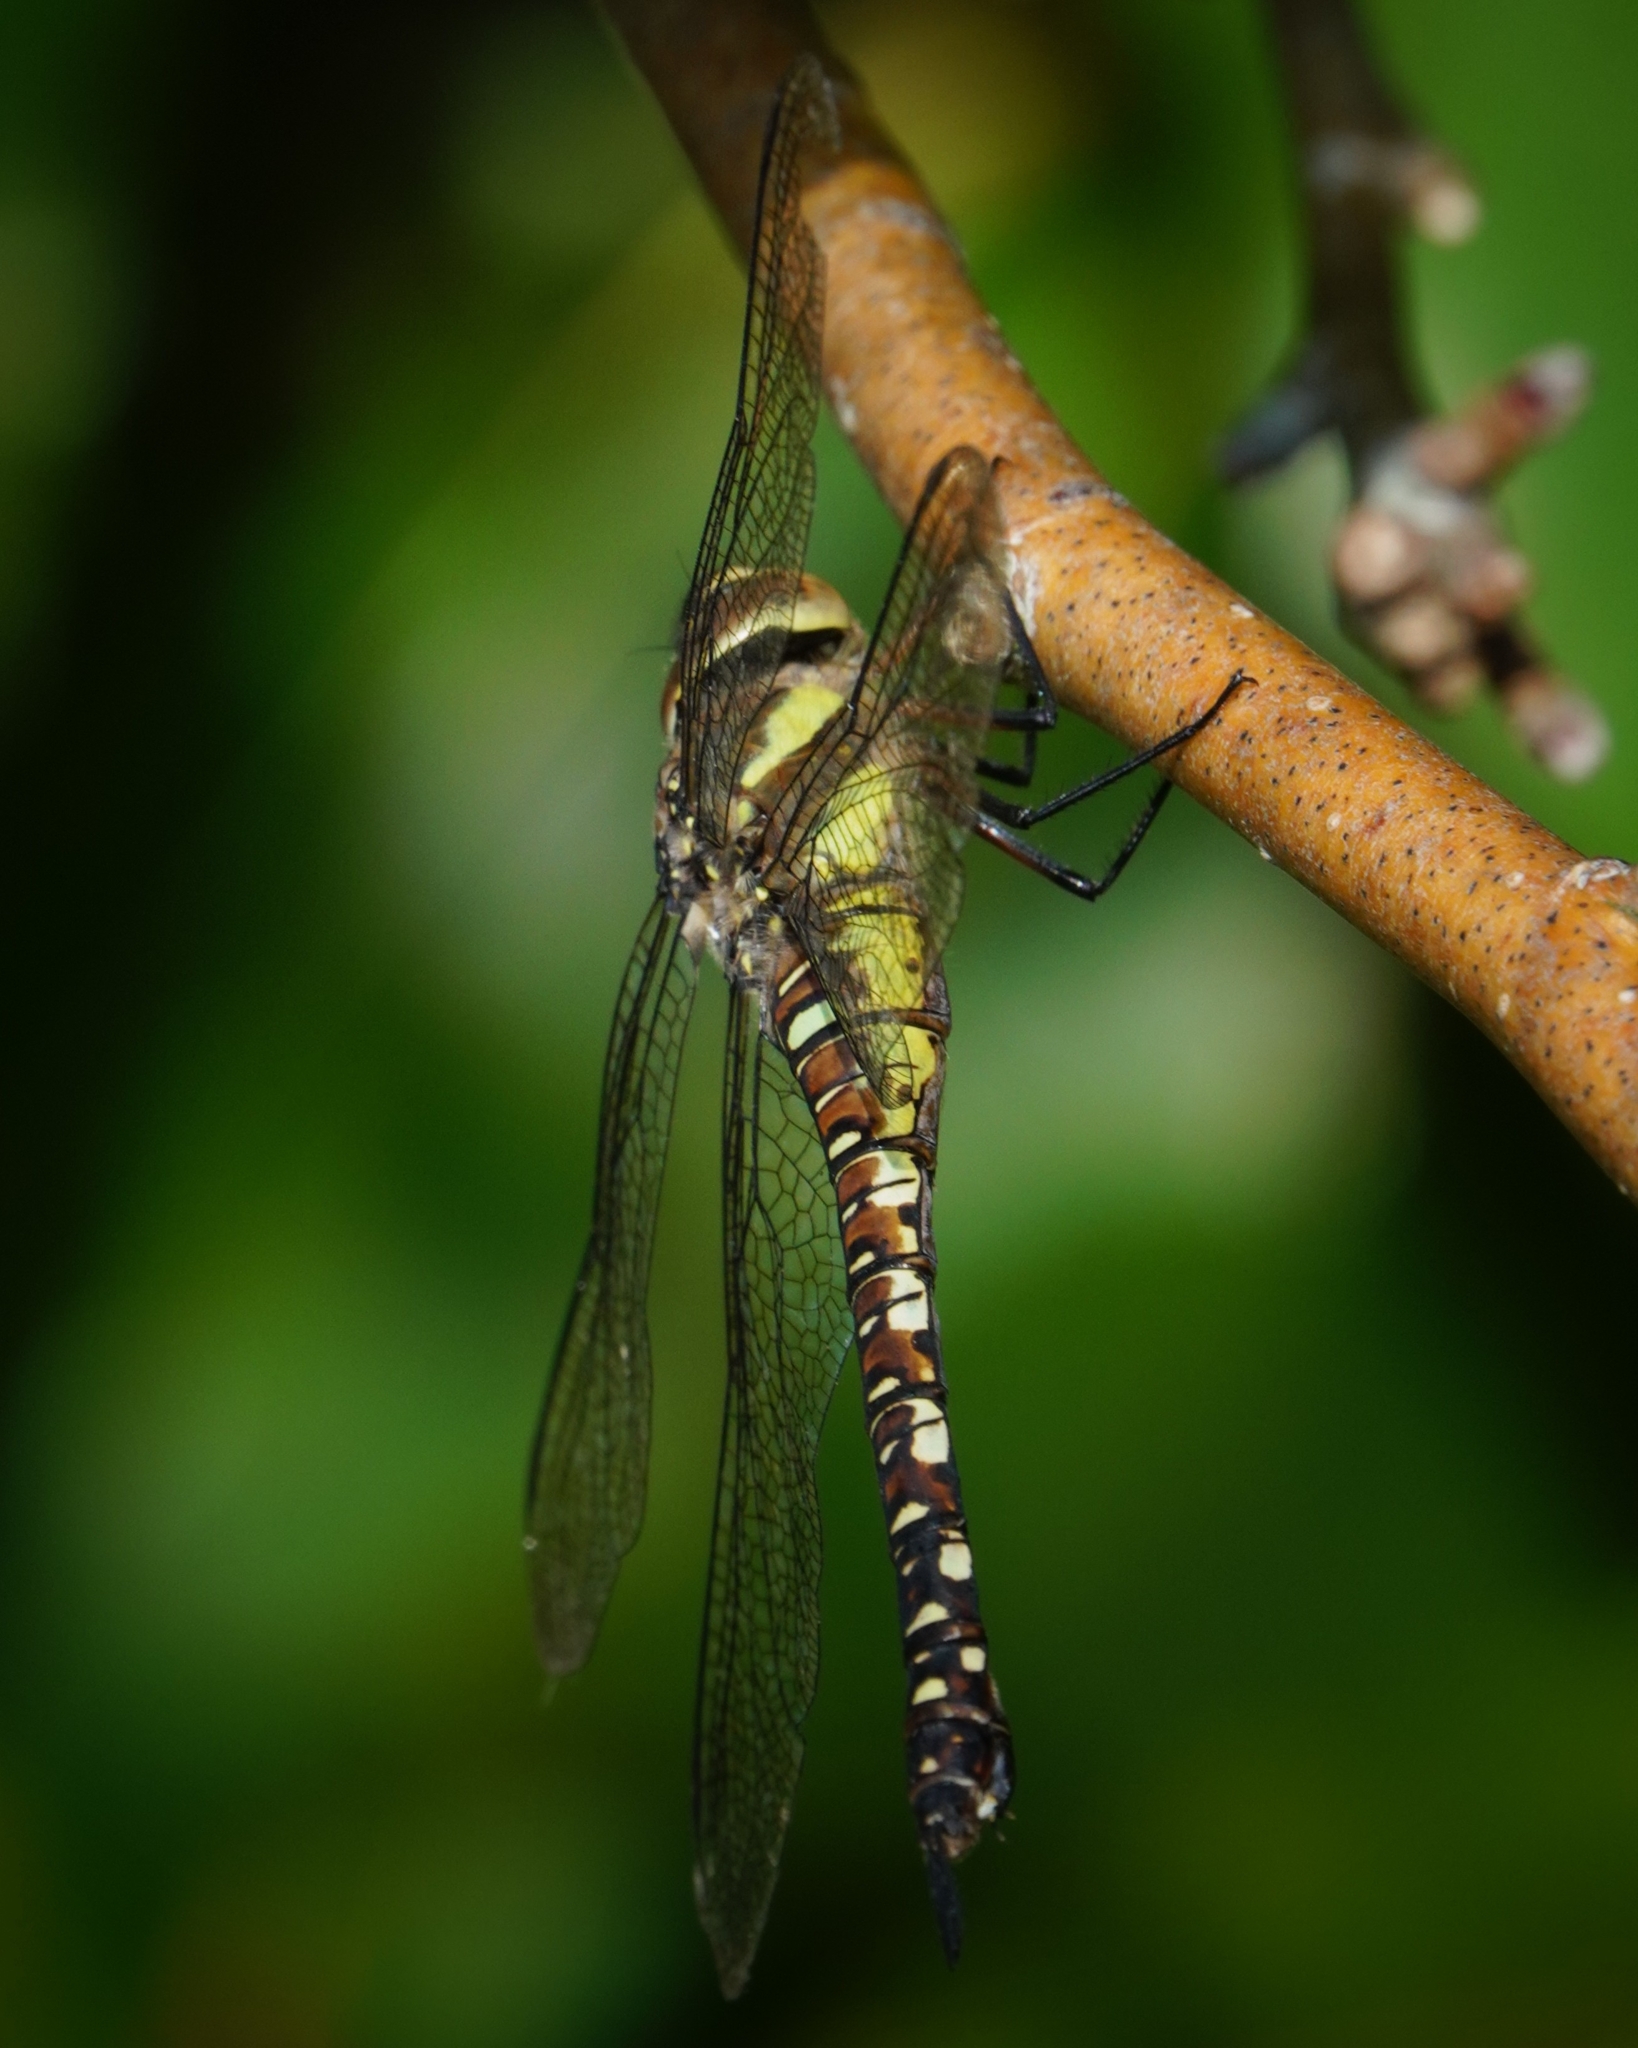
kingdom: Animalia
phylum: Arthropoda
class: Insecta
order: Odonata
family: Aeshnidae
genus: Aeshna
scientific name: Aeshna mixta
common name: Migrant hawker
